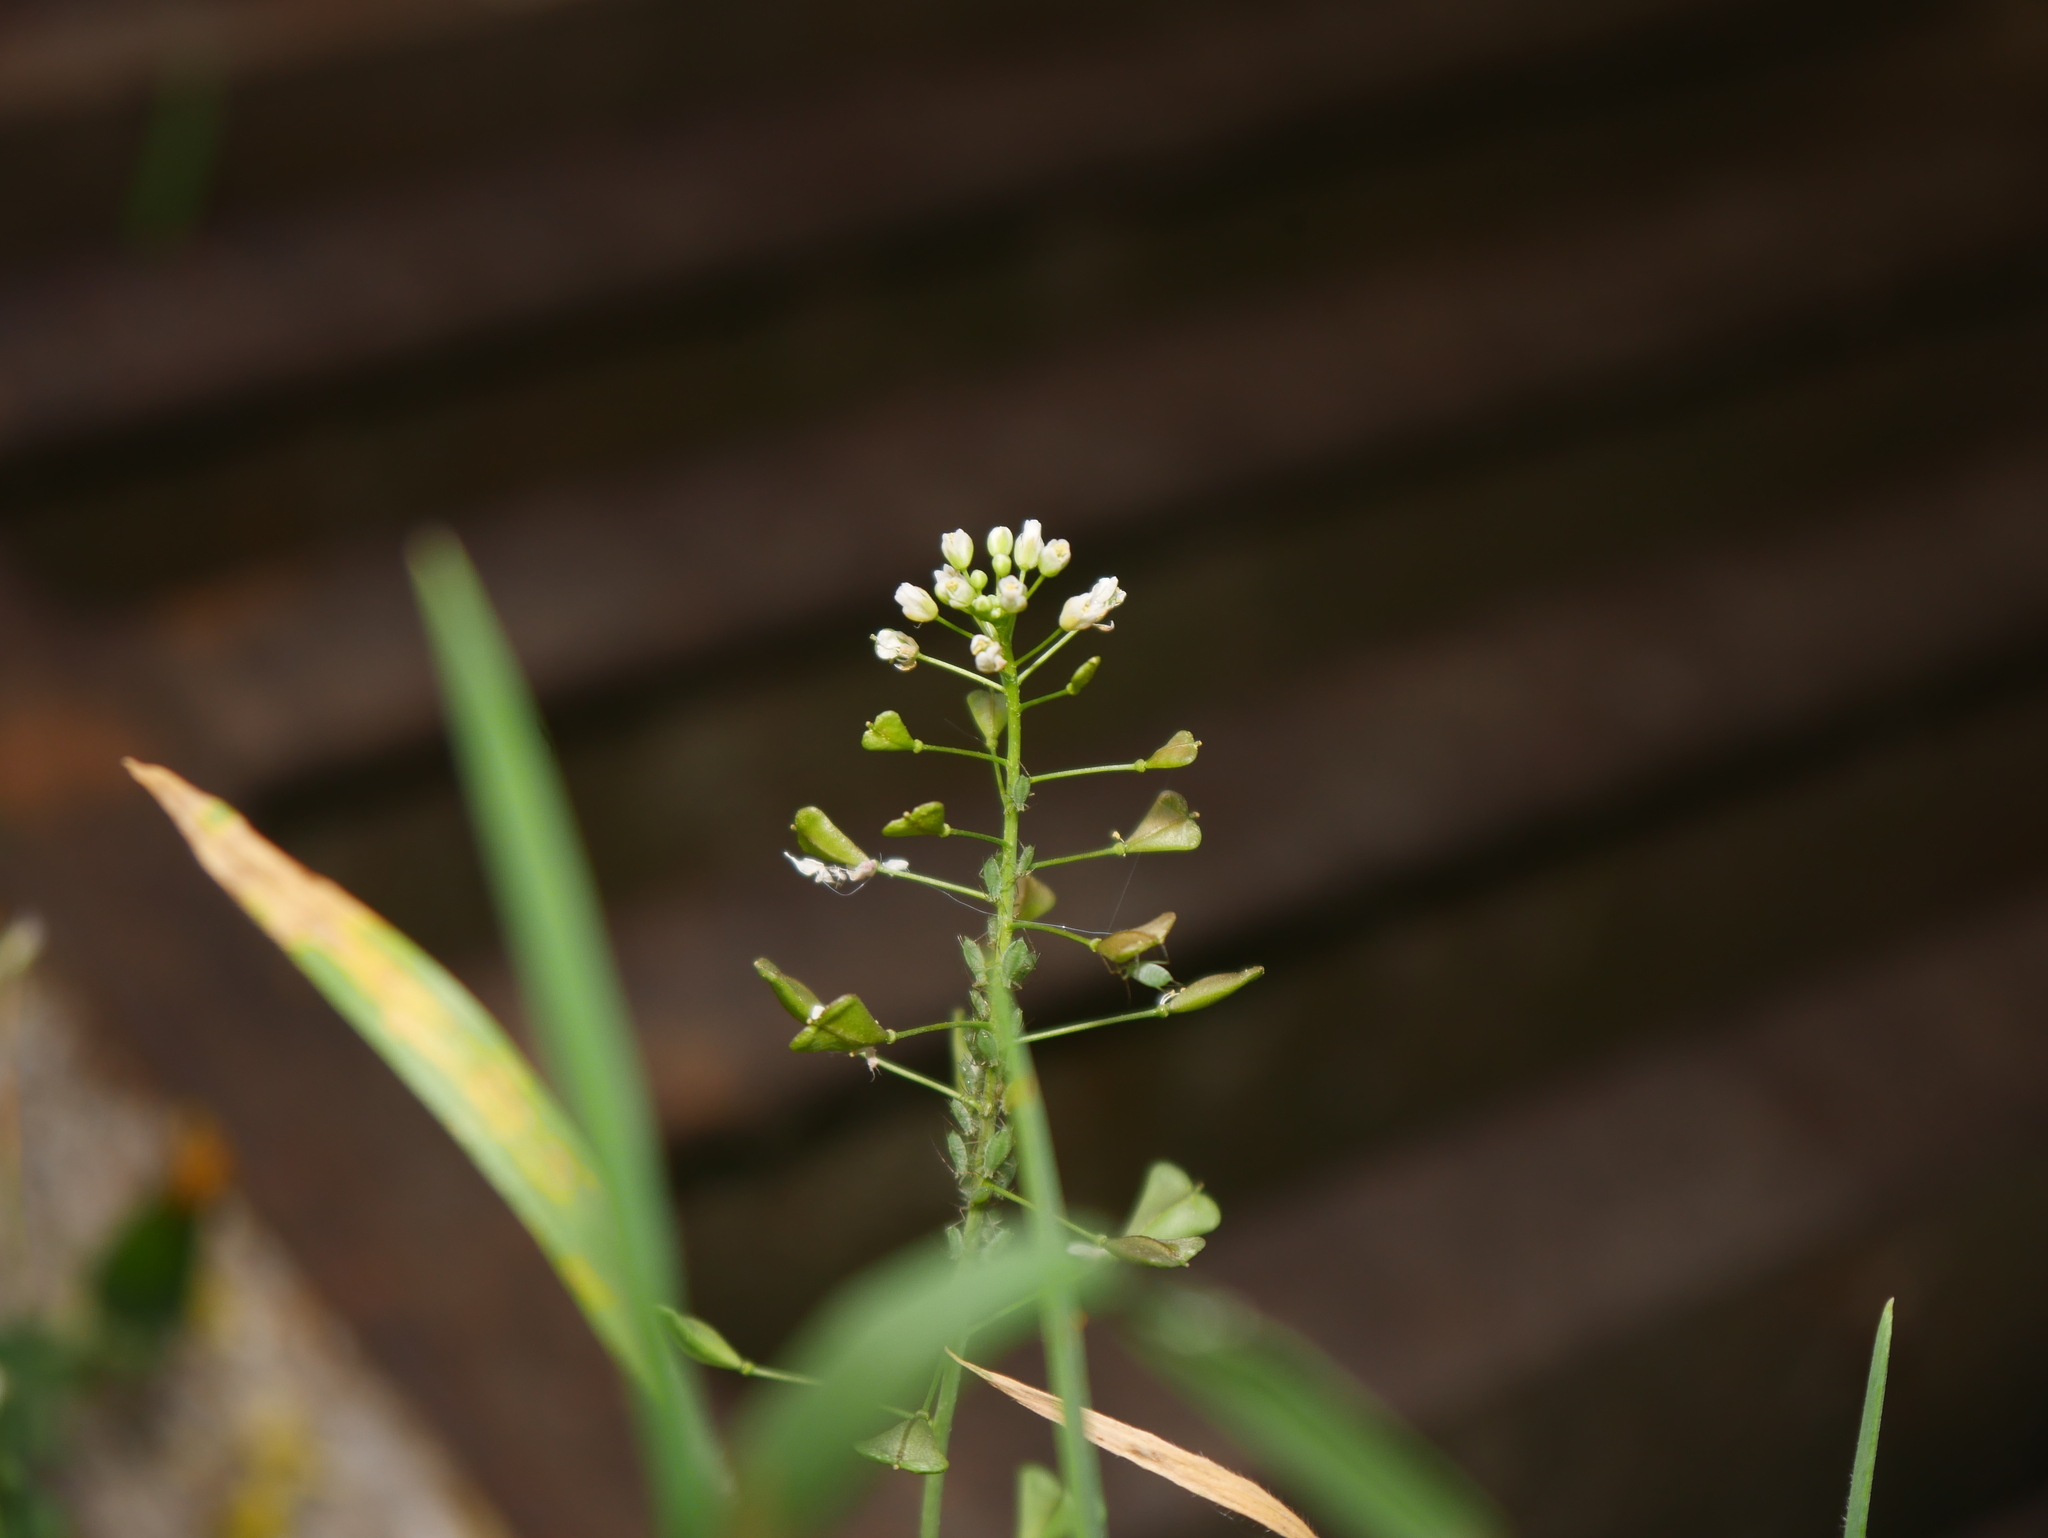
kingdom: Plantae
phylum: Tracheophyta
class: Magnoliopsida
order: Brassicales
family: Brassicaceae
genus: Capsella
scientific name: Capsella bursa-pastoris
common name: Shepherd's purse
